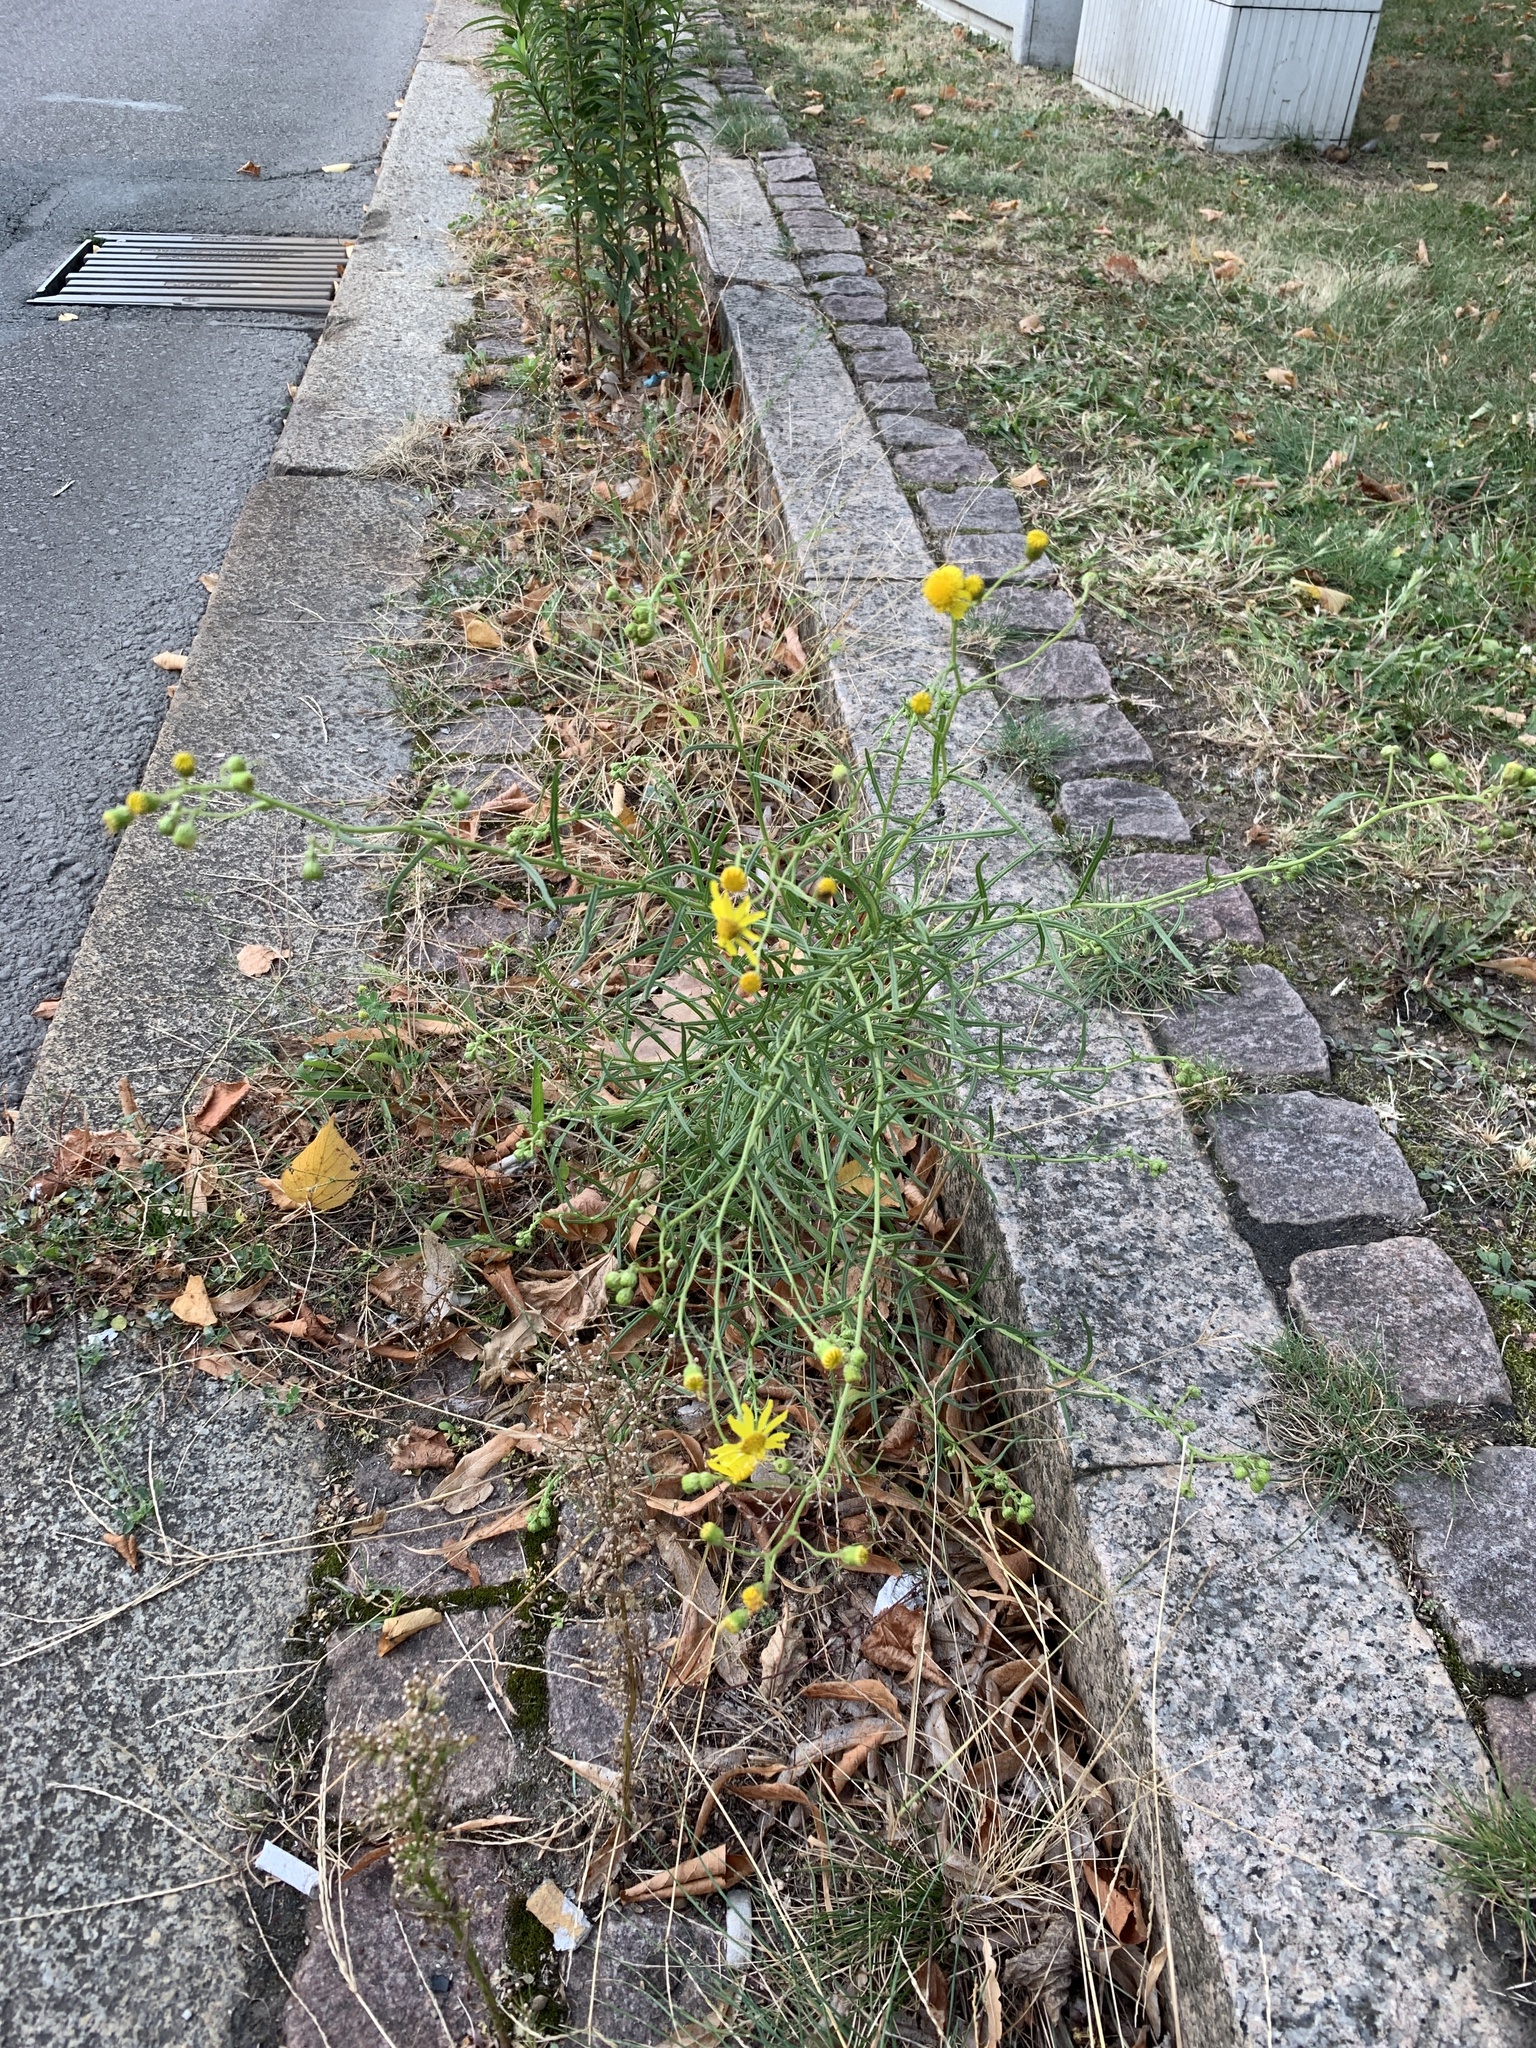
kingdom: Plantae
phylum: Tracheophyta
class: Magnoliopsida
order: Asterales
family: Asteraceae
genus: Senecio
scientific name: Senecio inaequidens
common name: Narrow-leaved ragwort
